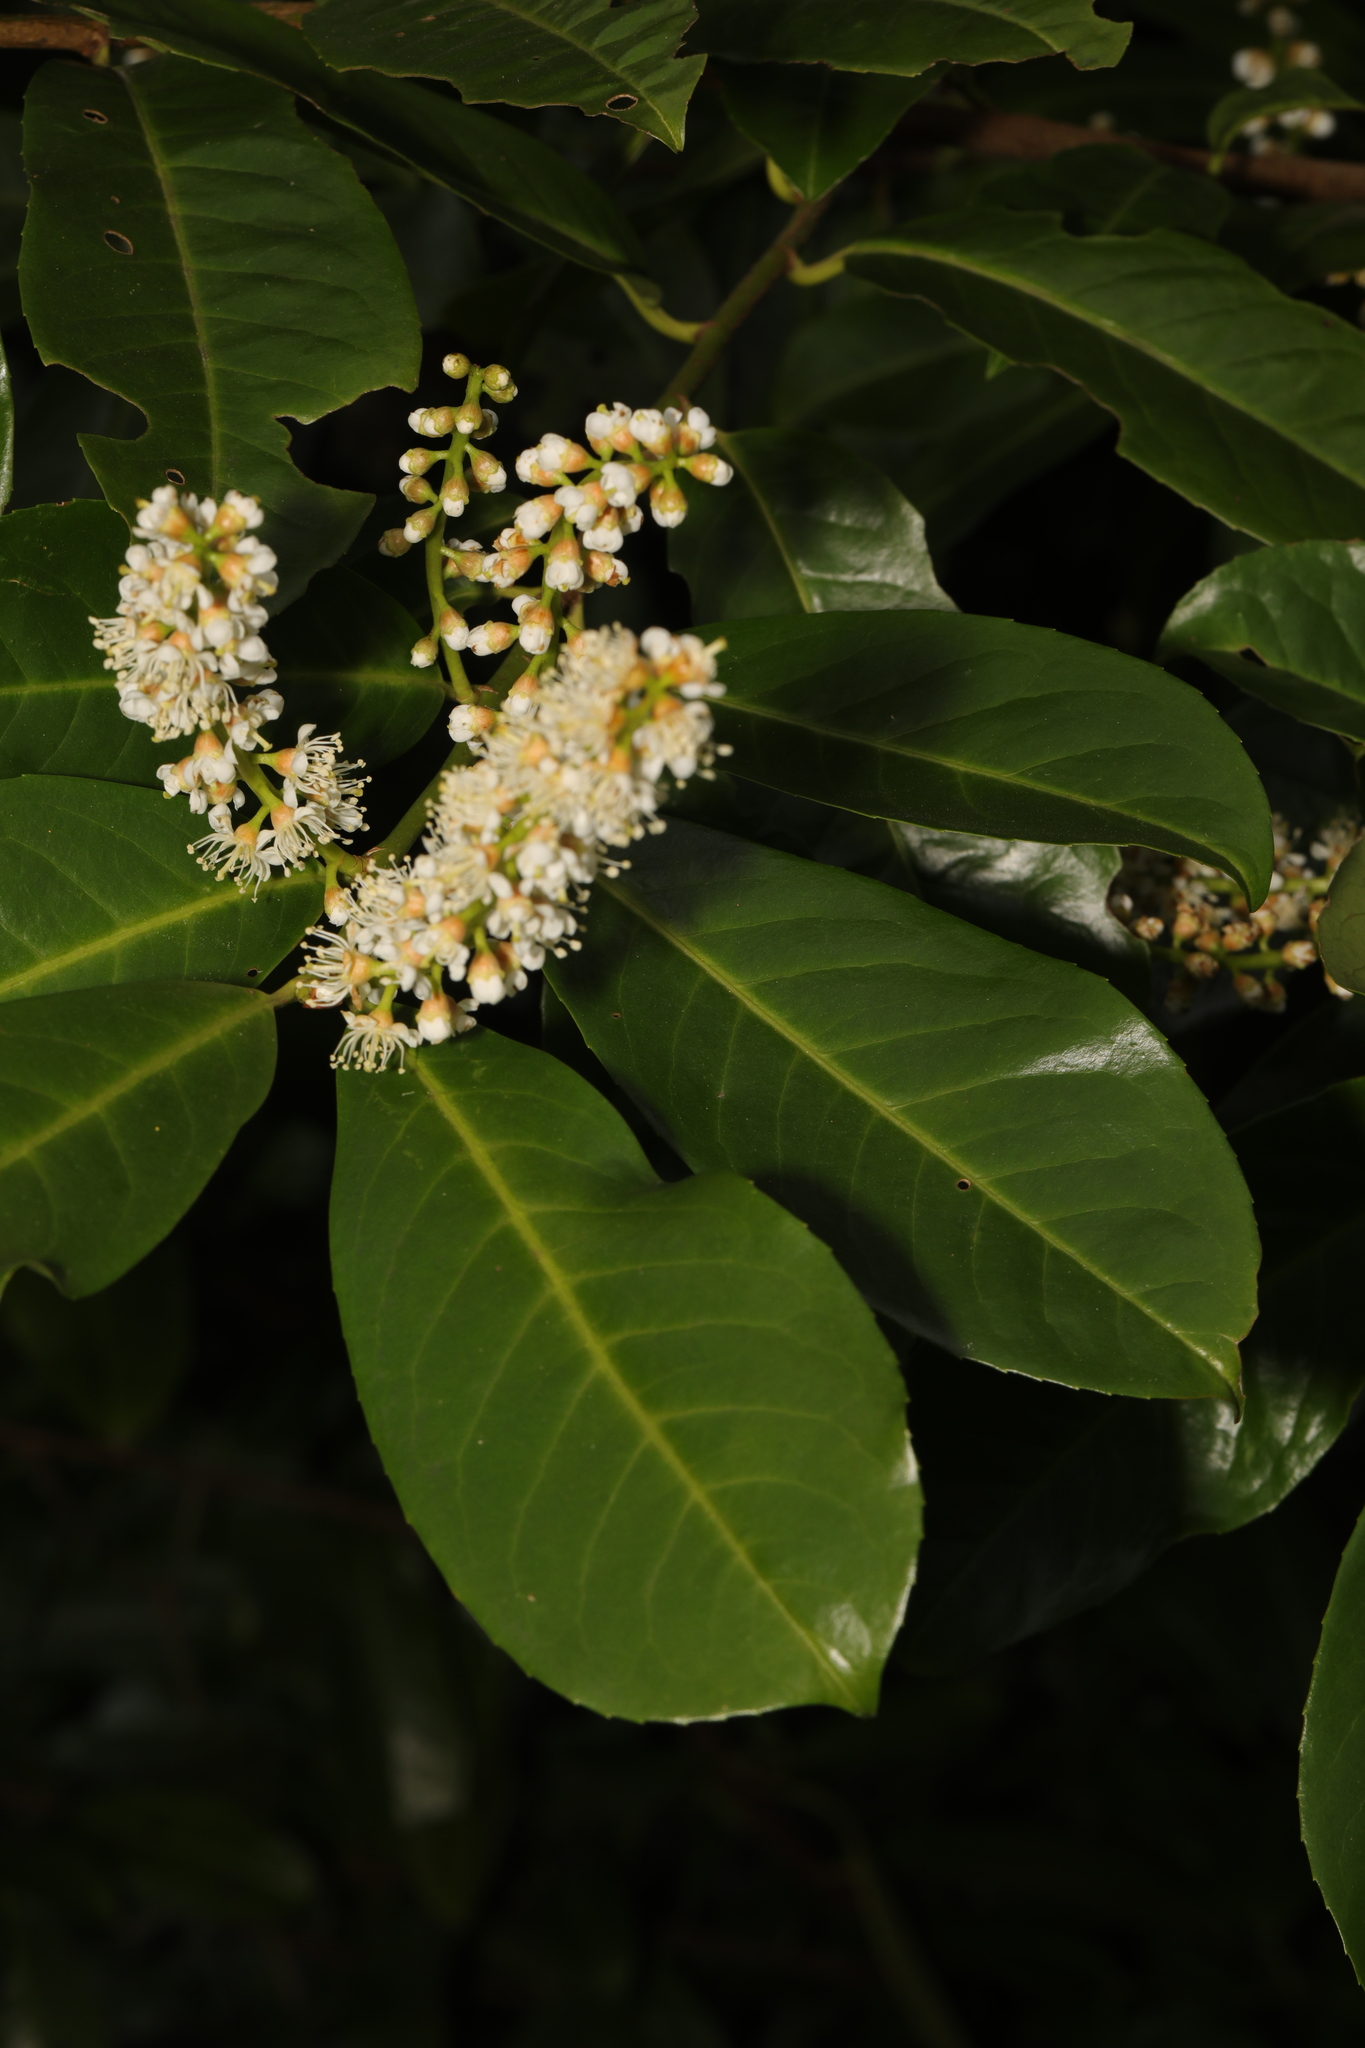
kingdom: Plantae
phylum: Tracheophyta
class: Magnoliopsida
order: Rosales
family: Rosaceae
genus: Prunus
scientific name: Prunus laurocerasus
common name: Cherry laurel
